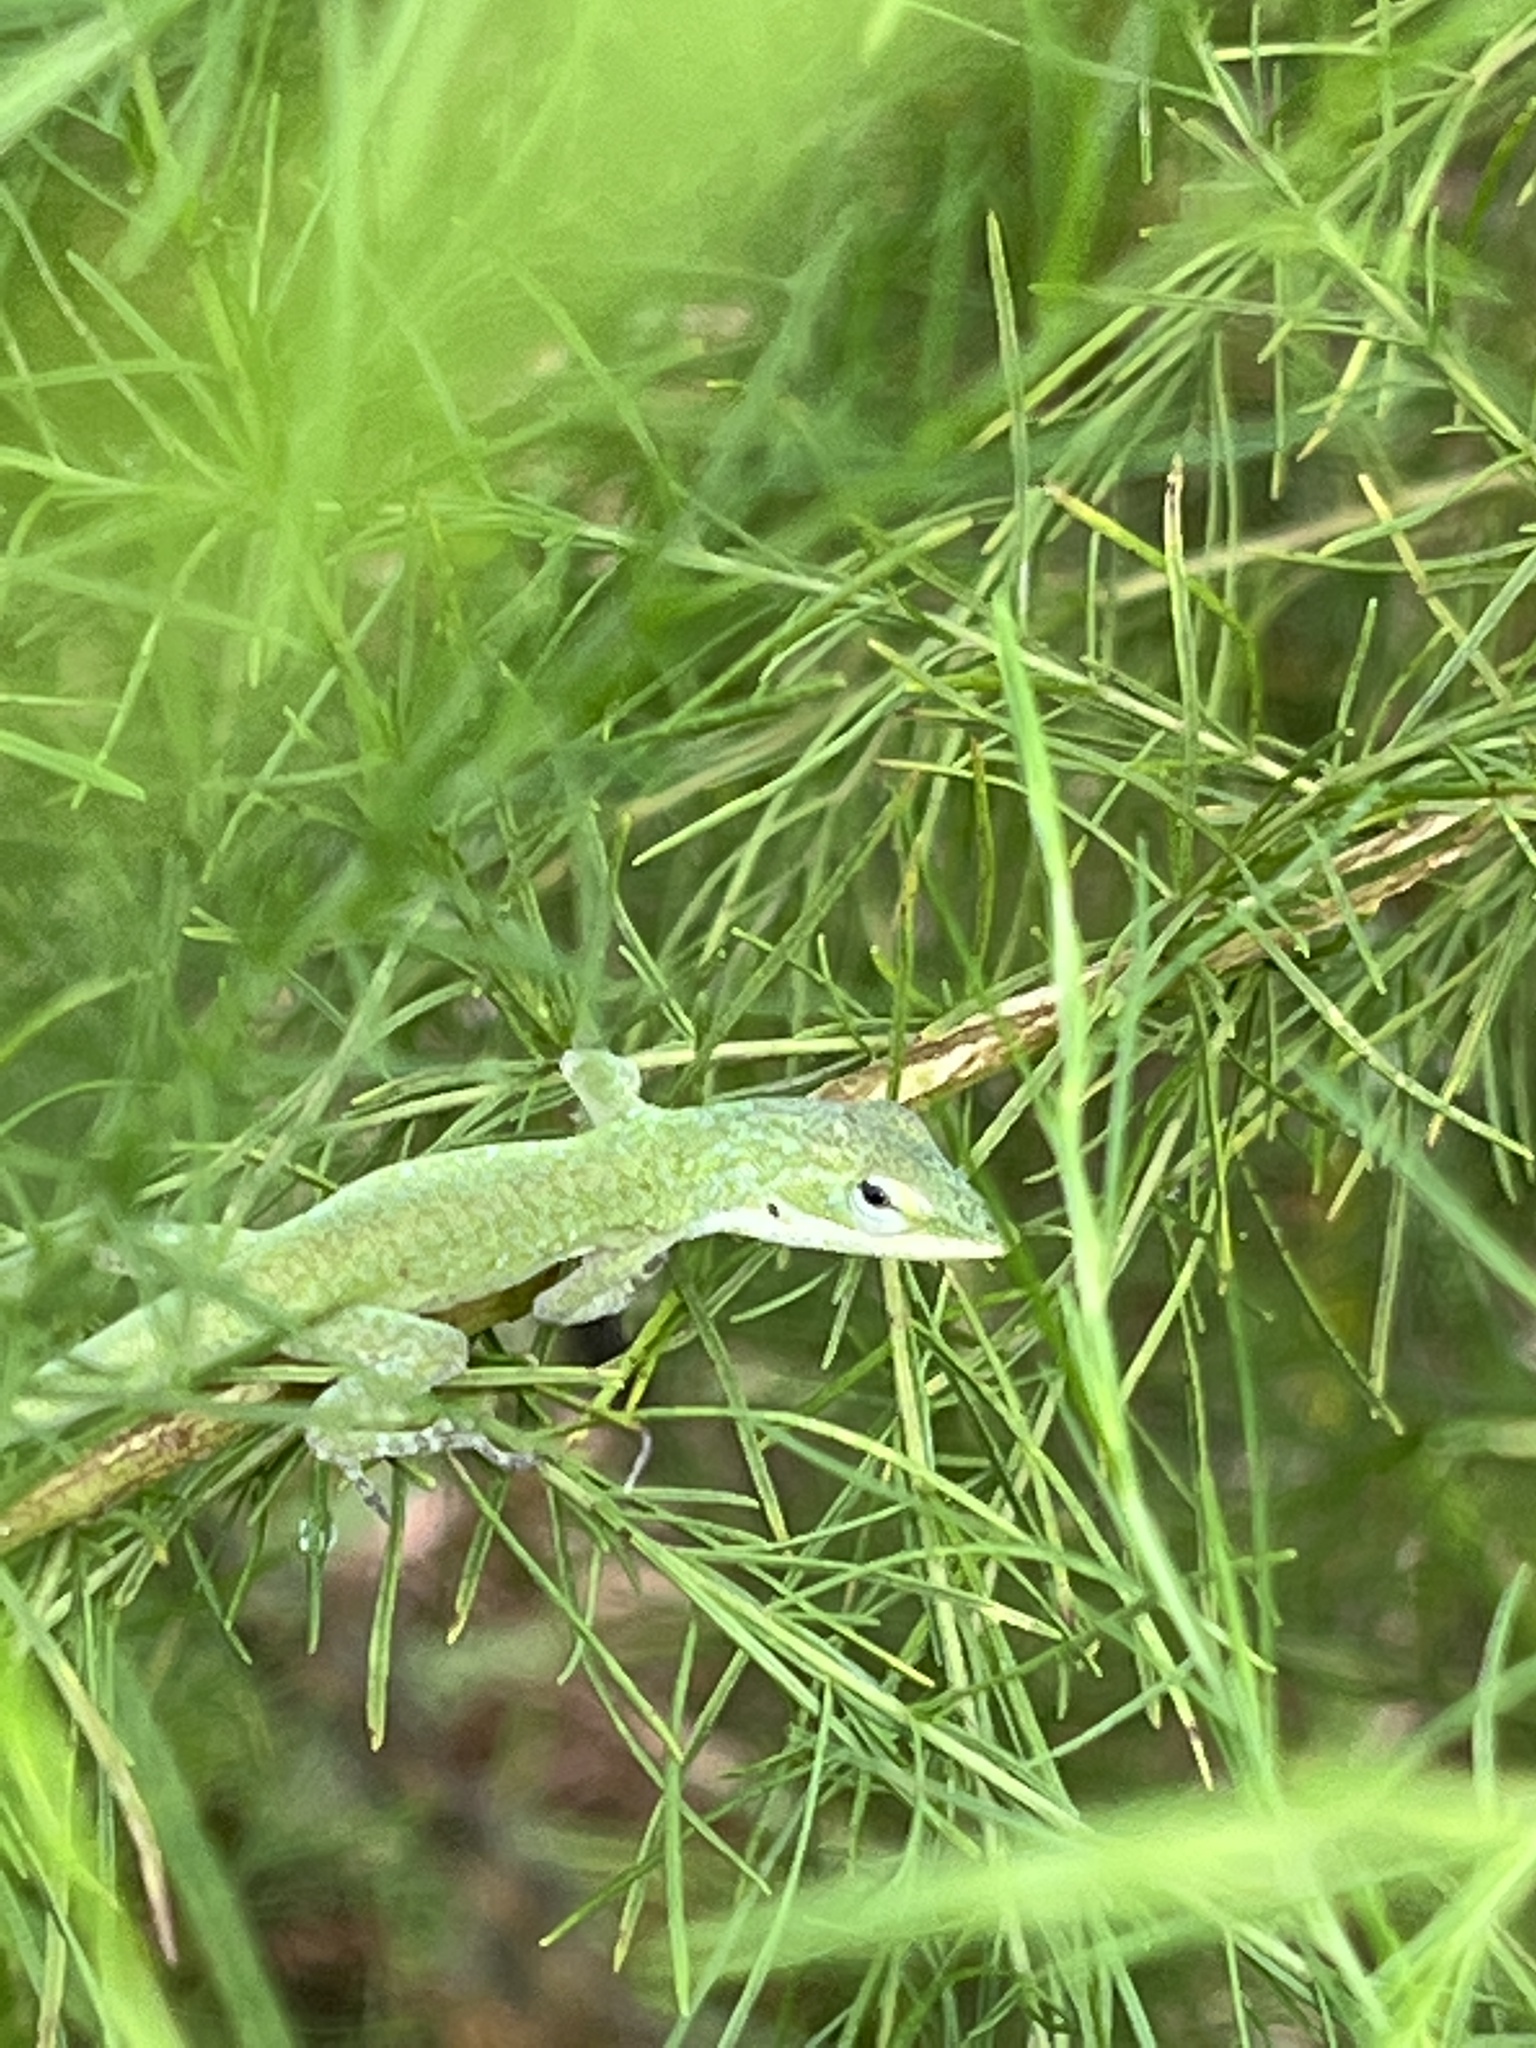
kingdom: Animalia
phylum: Chordata
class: Squamata
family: Dactyloidae
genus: Anolis
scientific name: Anolis carolinensis
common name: Green anole
